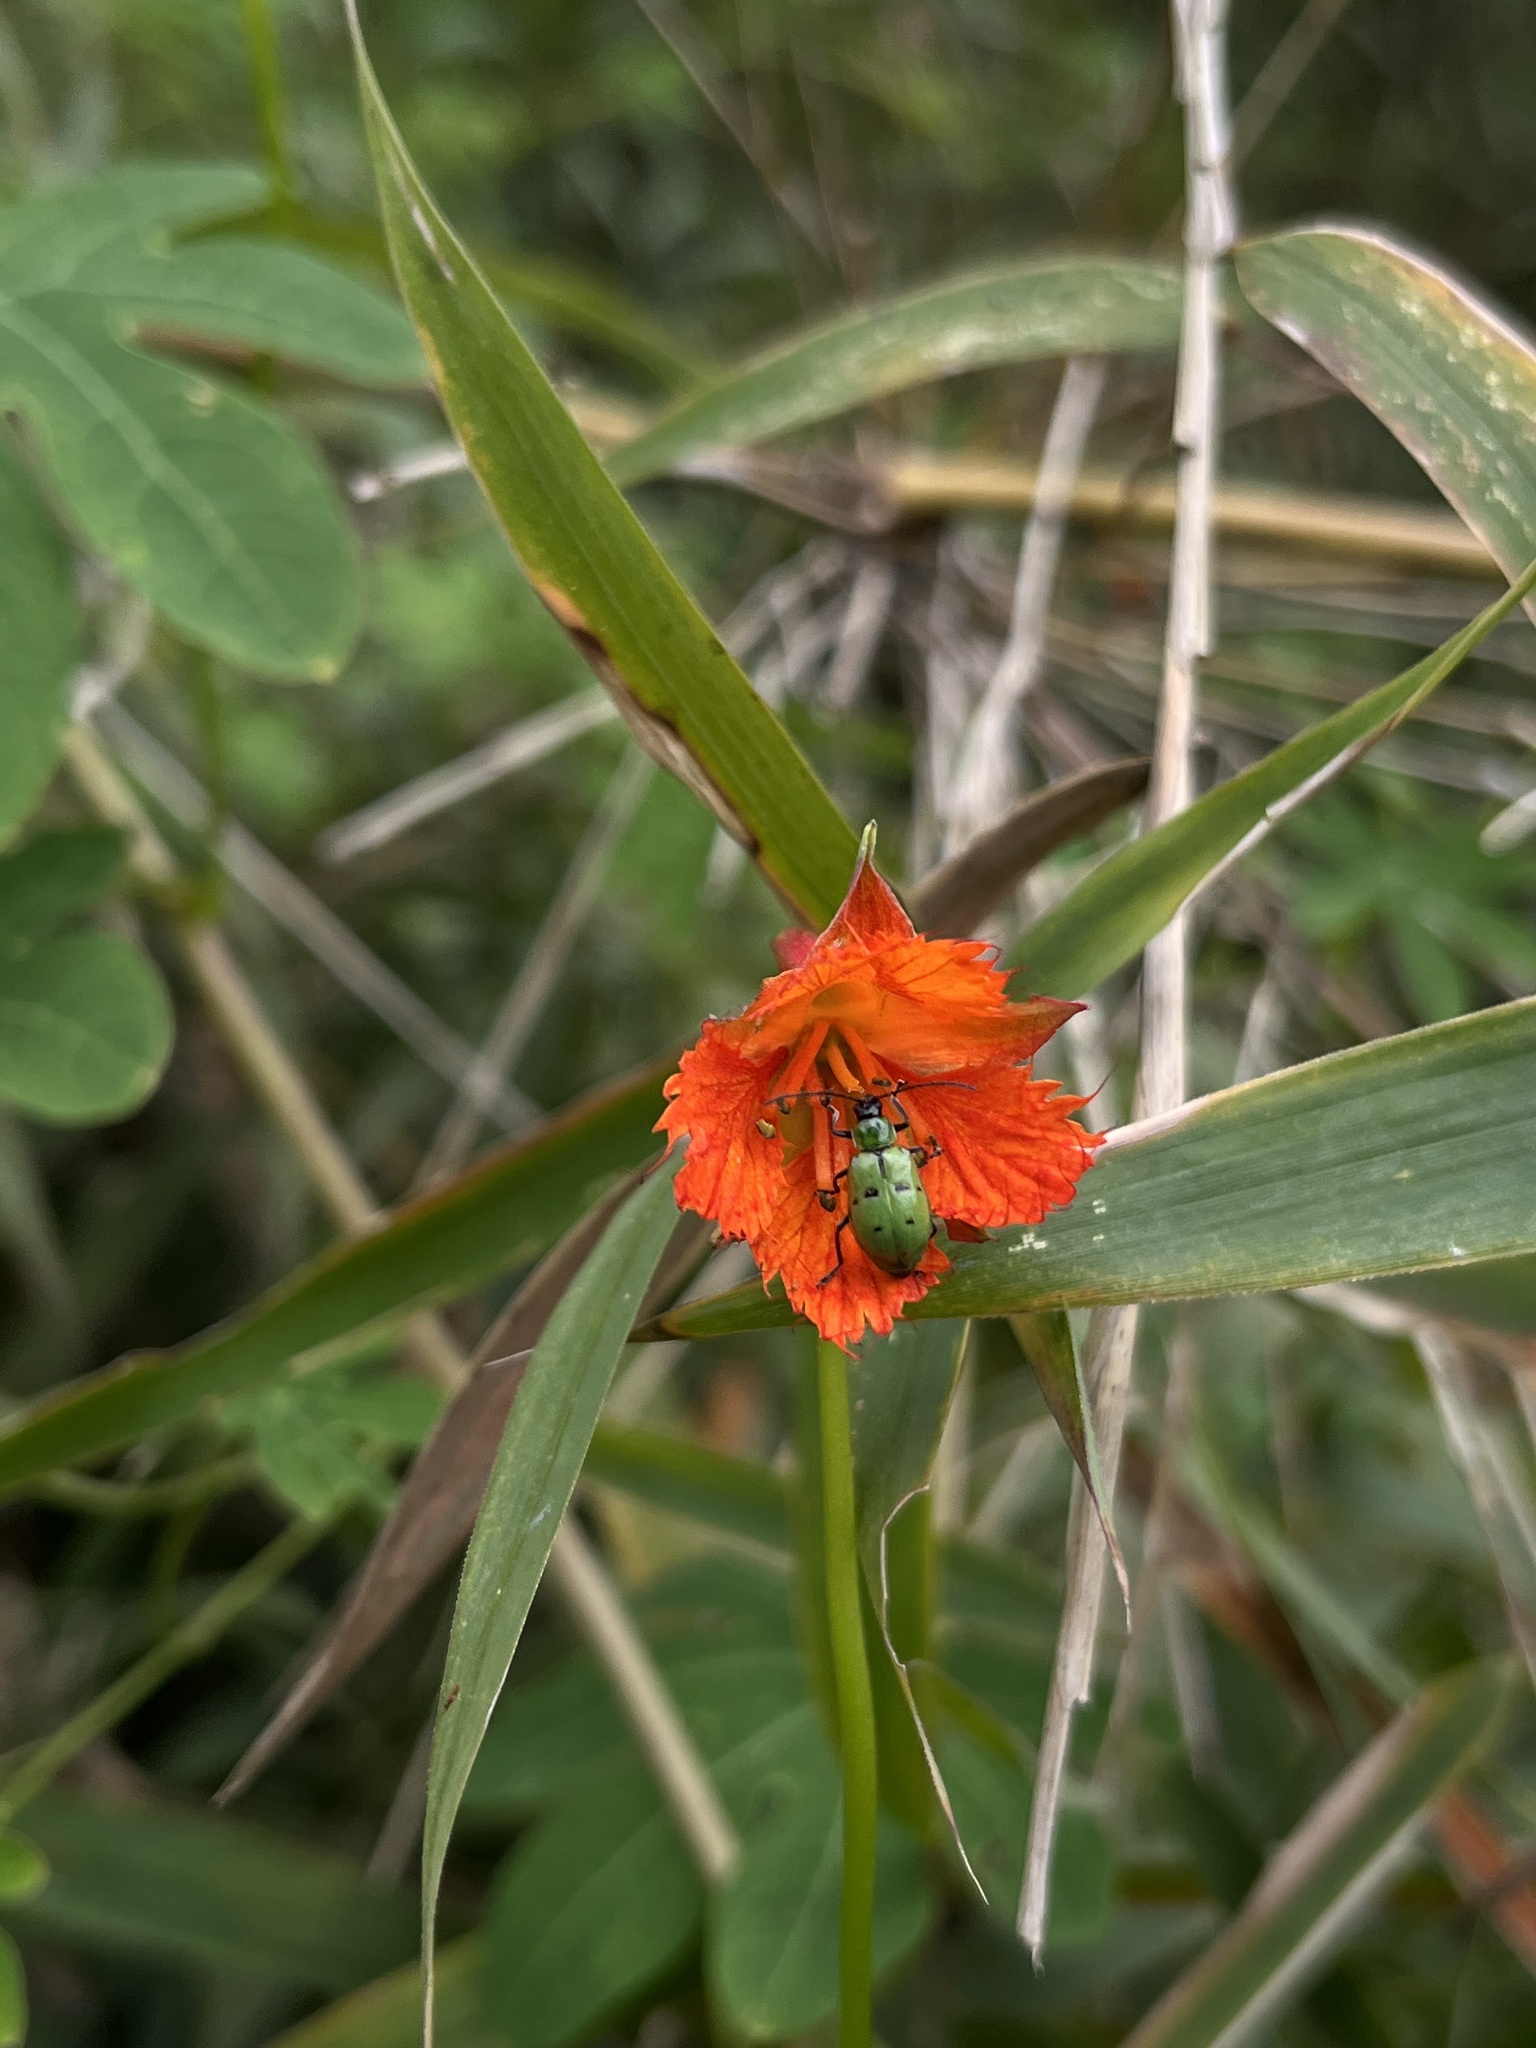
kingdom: Plantae
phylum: Tracheophyta
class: Magnoliopsida
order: Brassicales
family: Tropaeolaceae
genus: Tropaeolum
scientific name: Tropaeolum smithii
